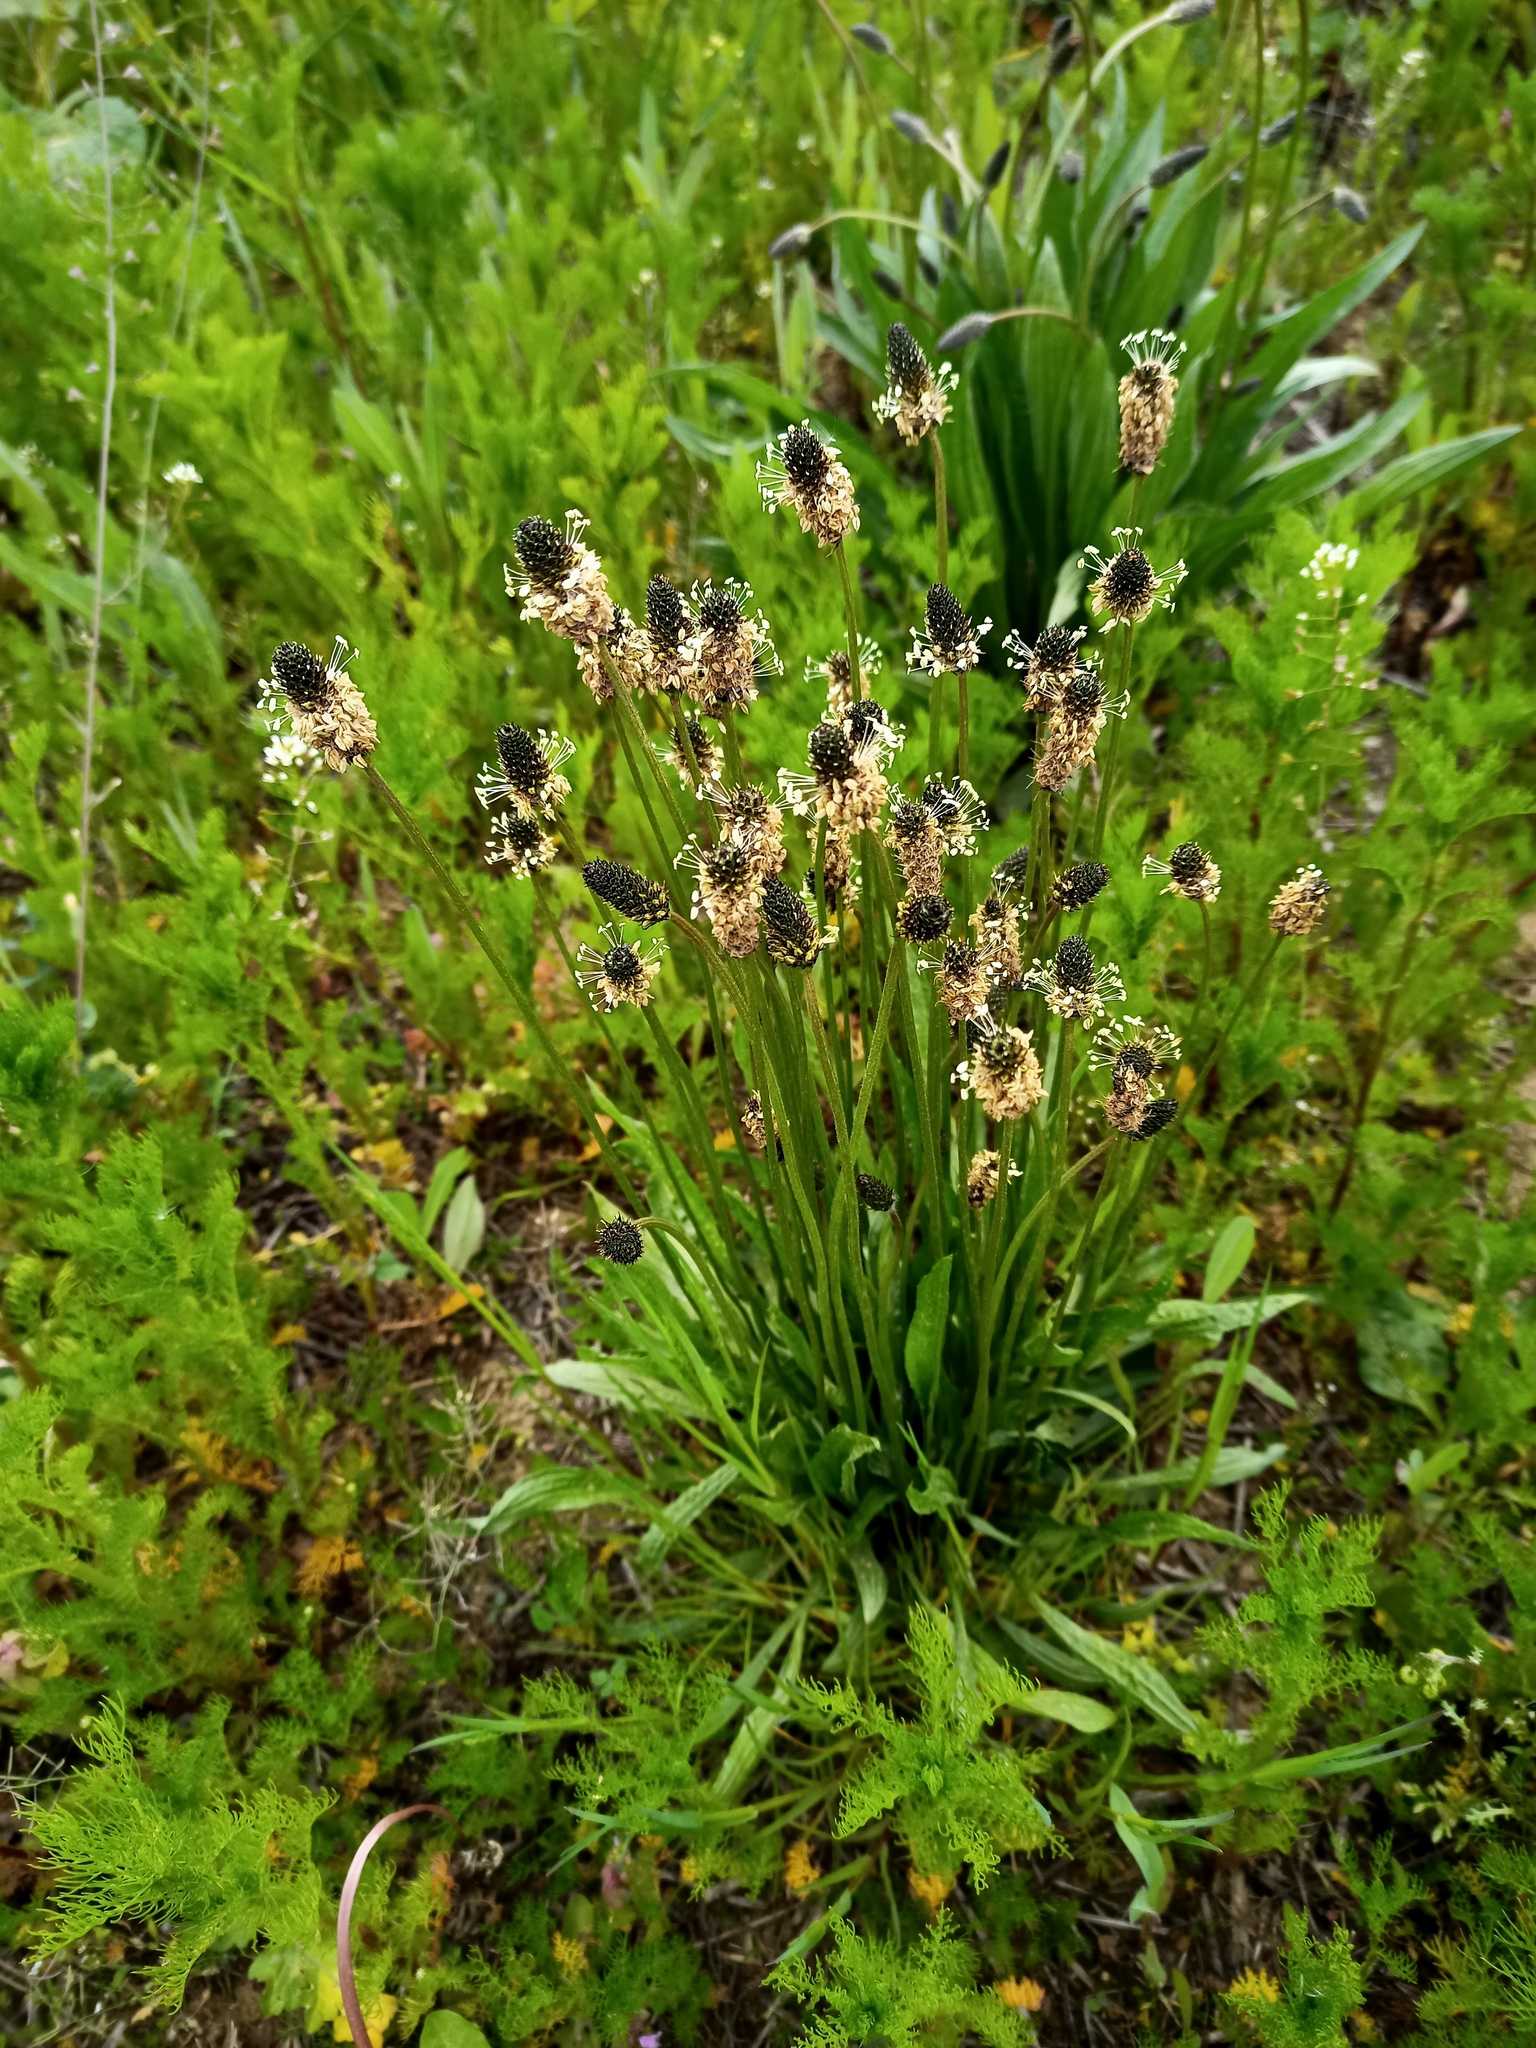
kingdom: Plantae
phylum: Tracheophyta
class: Magnoliopsida
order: Lamiales
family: Plantaginaceae
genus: Plantago
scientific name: Plantago lanceolata
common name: Ribwort plantain
